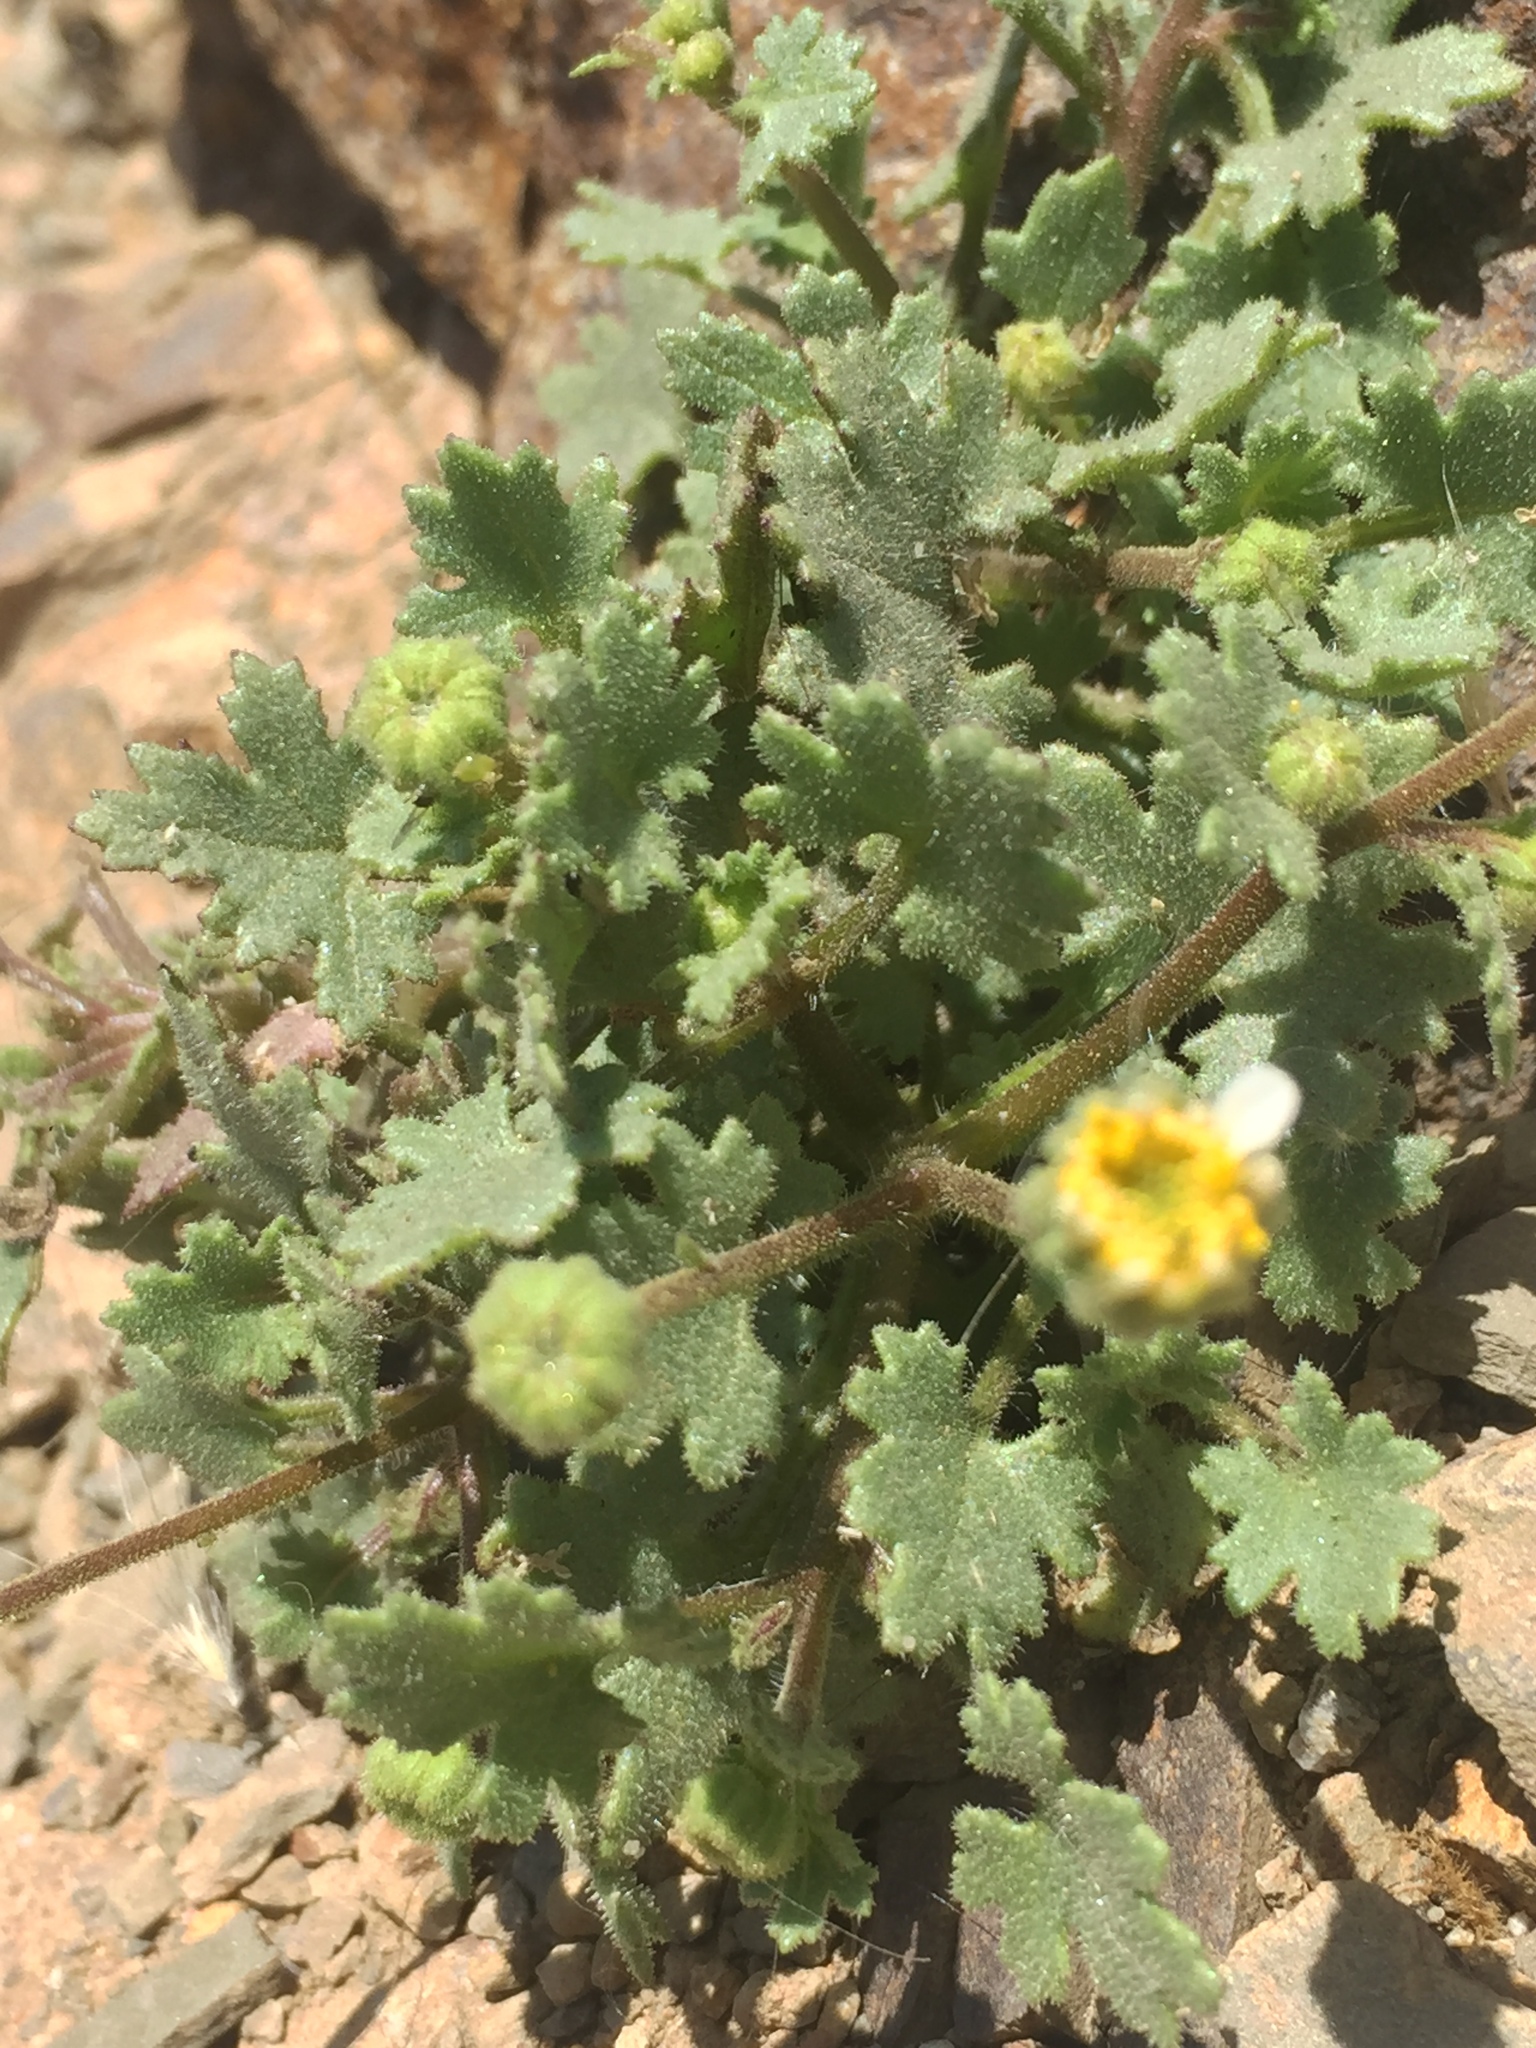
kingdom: Plantae
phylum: Tracheophyta
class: Magnoliopsida
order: Asterales
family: Asteraceae
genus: Laphamia
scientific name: Laphamia emoryi
